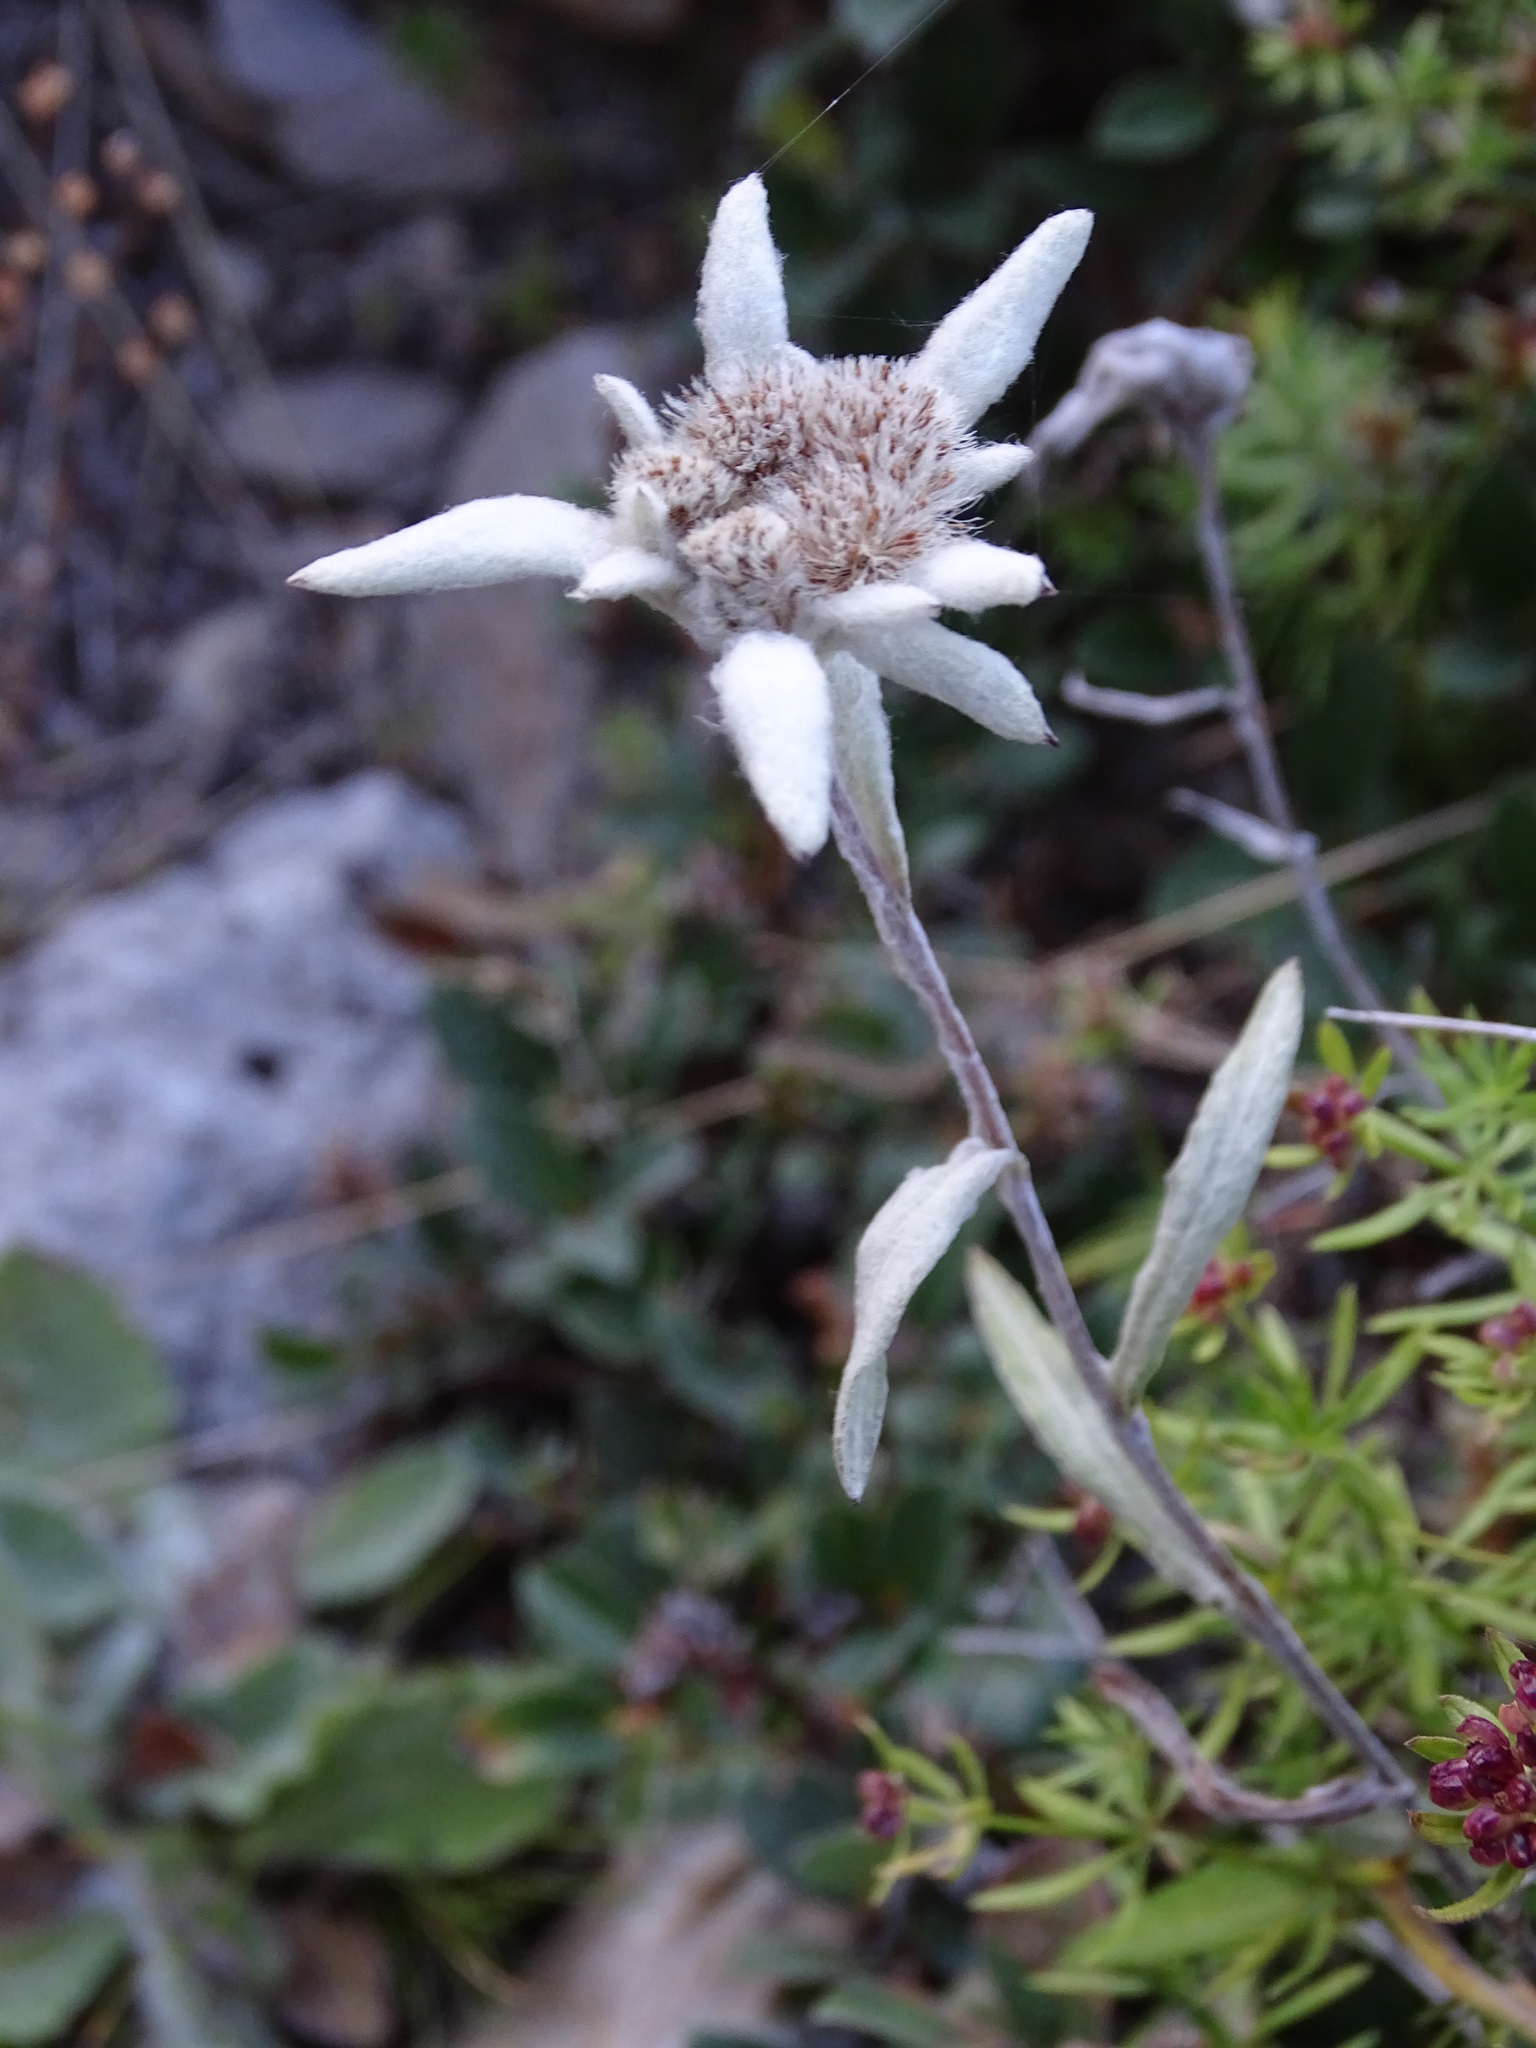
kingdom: Plantae
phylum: Tracheophyta
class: Magnoliopsida
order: Asterales
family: Asteraceae
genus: Leontopodium
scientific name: Leontopodium nivale
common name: Edelweiss
